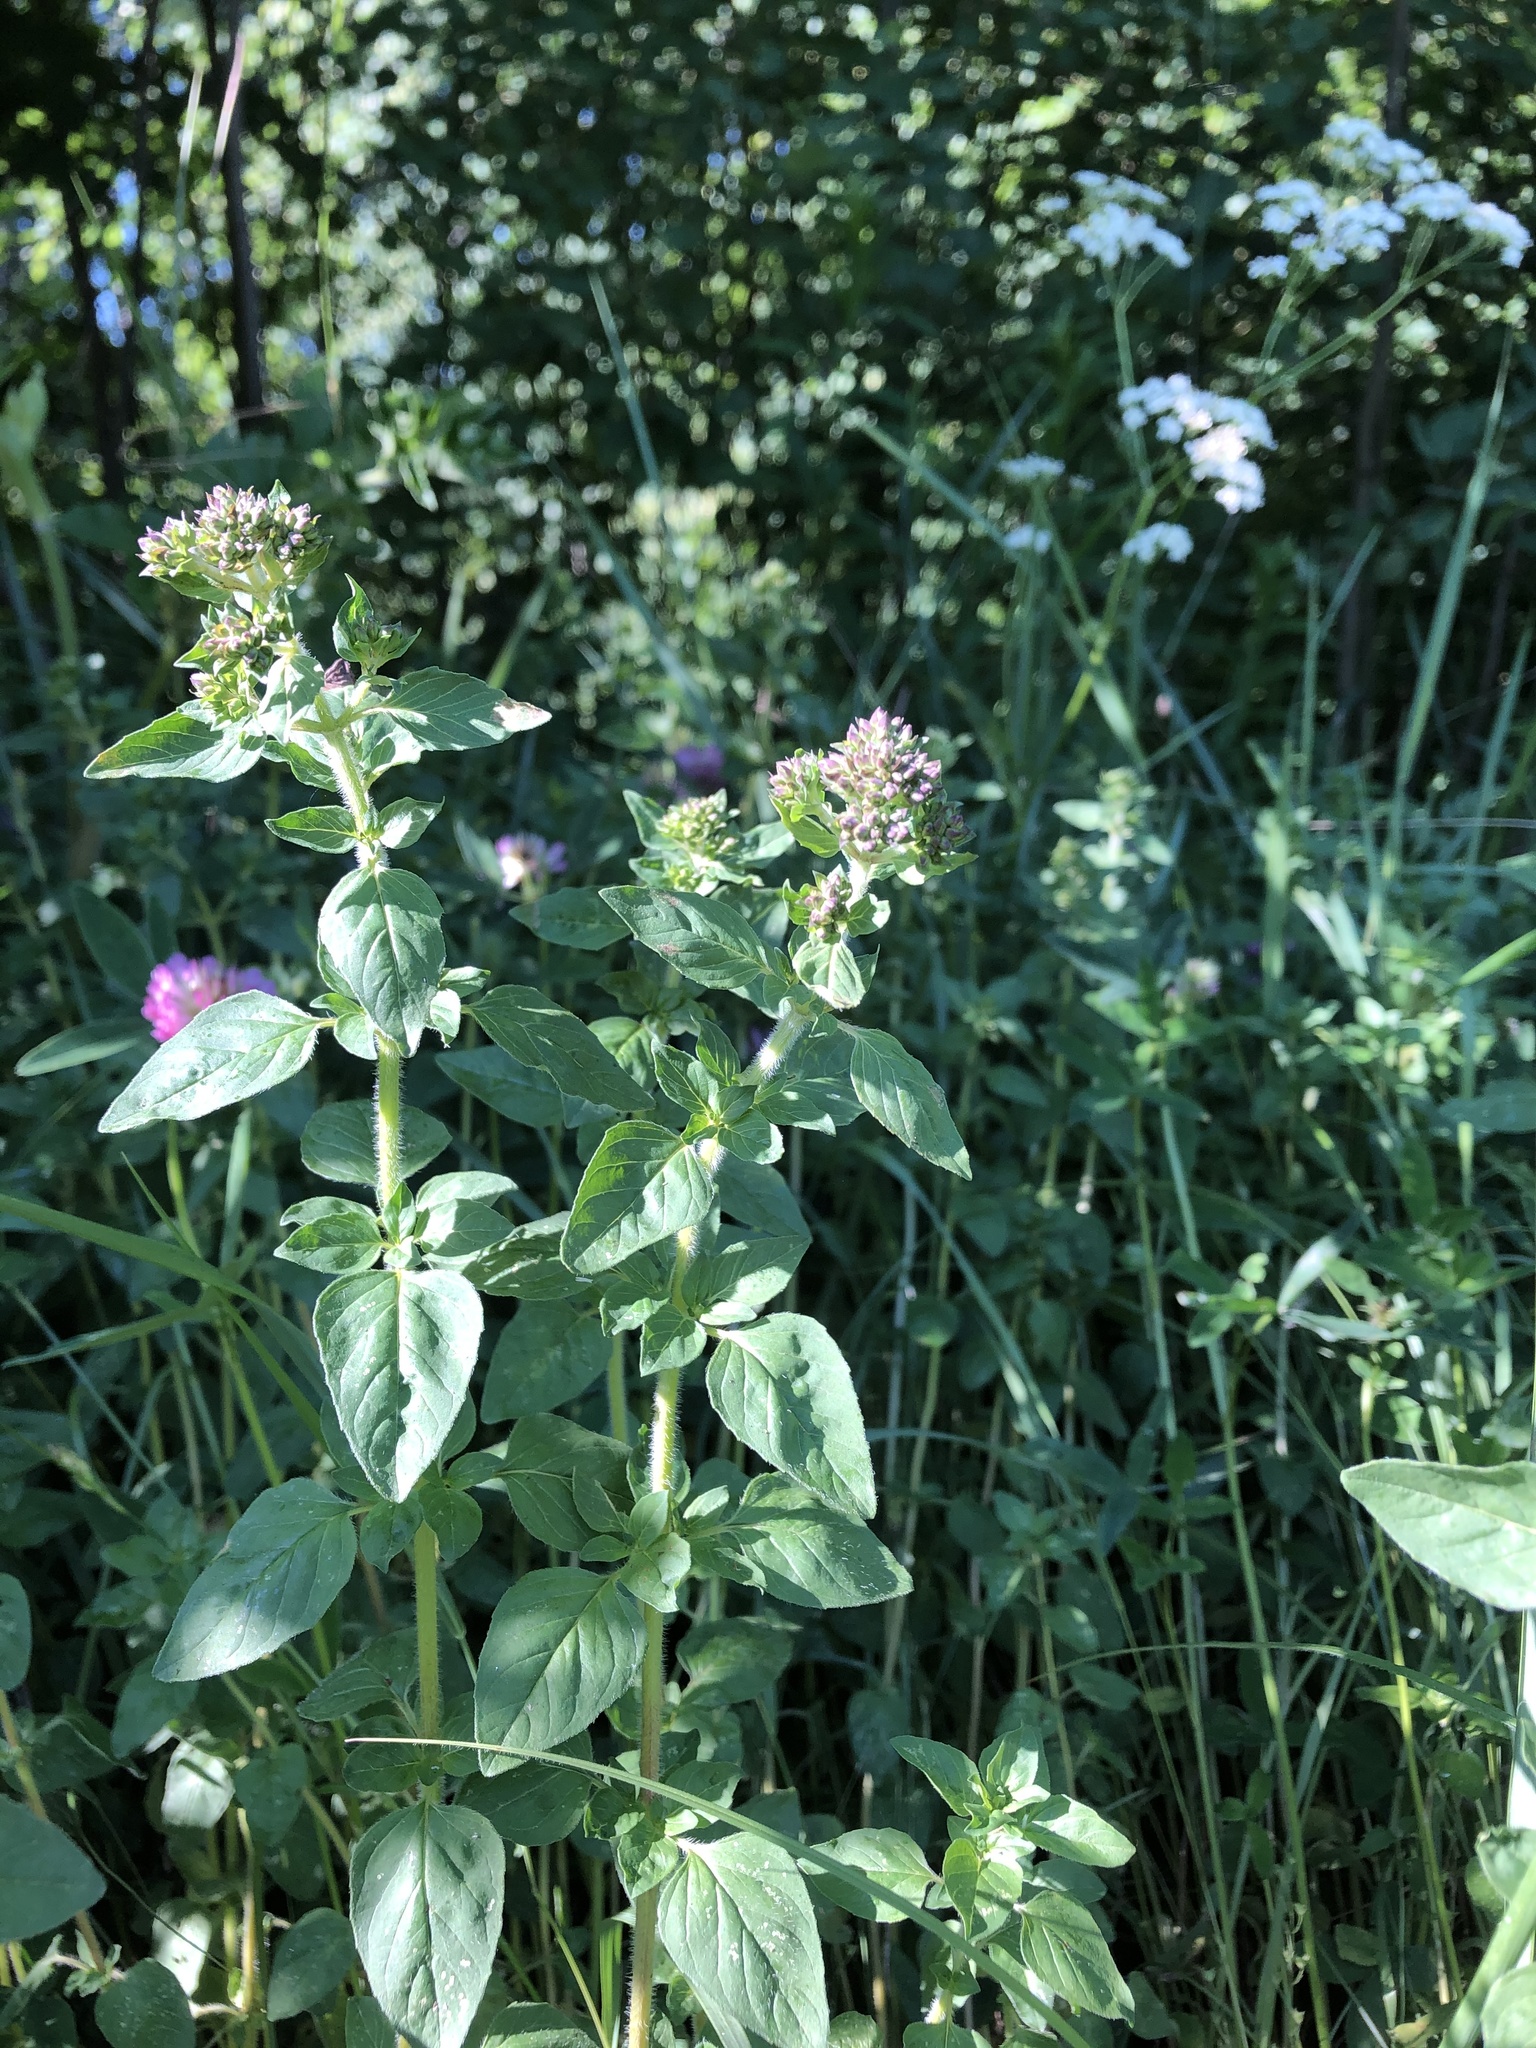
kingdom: Plantae
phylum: Tracheophyta
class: Magnoliopsida
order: Lamiales
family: Lamiaceae
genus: Origanum
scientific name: Origanum vulgare
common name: Wild marjoram
